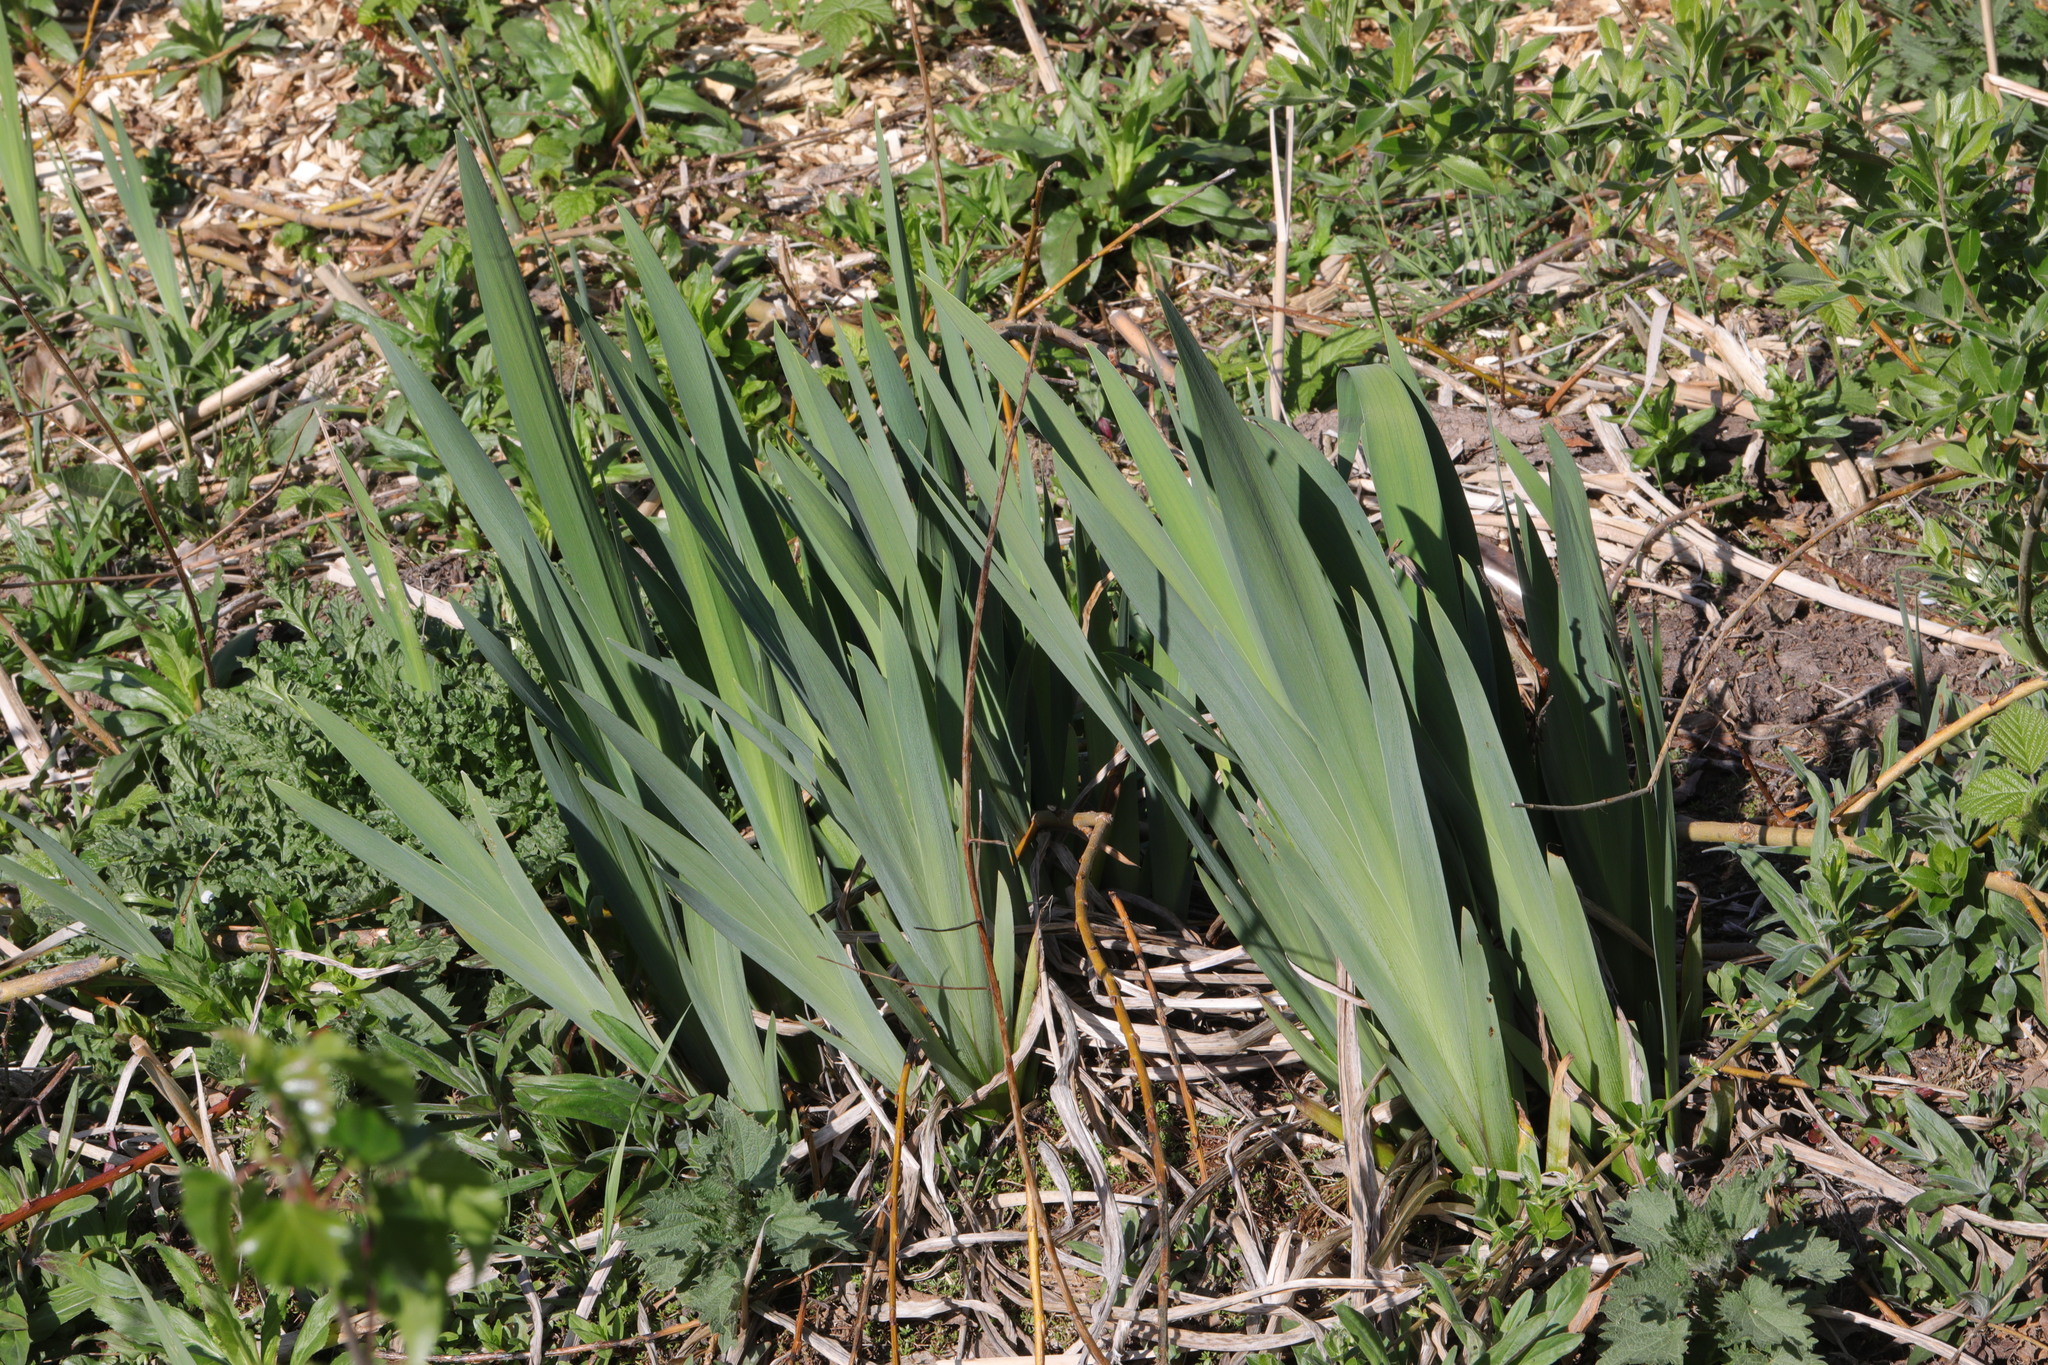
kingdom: Plantae
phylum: Tracheophyta
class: Liliopsida
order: Asparagales
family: Iridaceae
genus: Iris
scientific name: Iris pseudacorus
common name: Yellow flag
